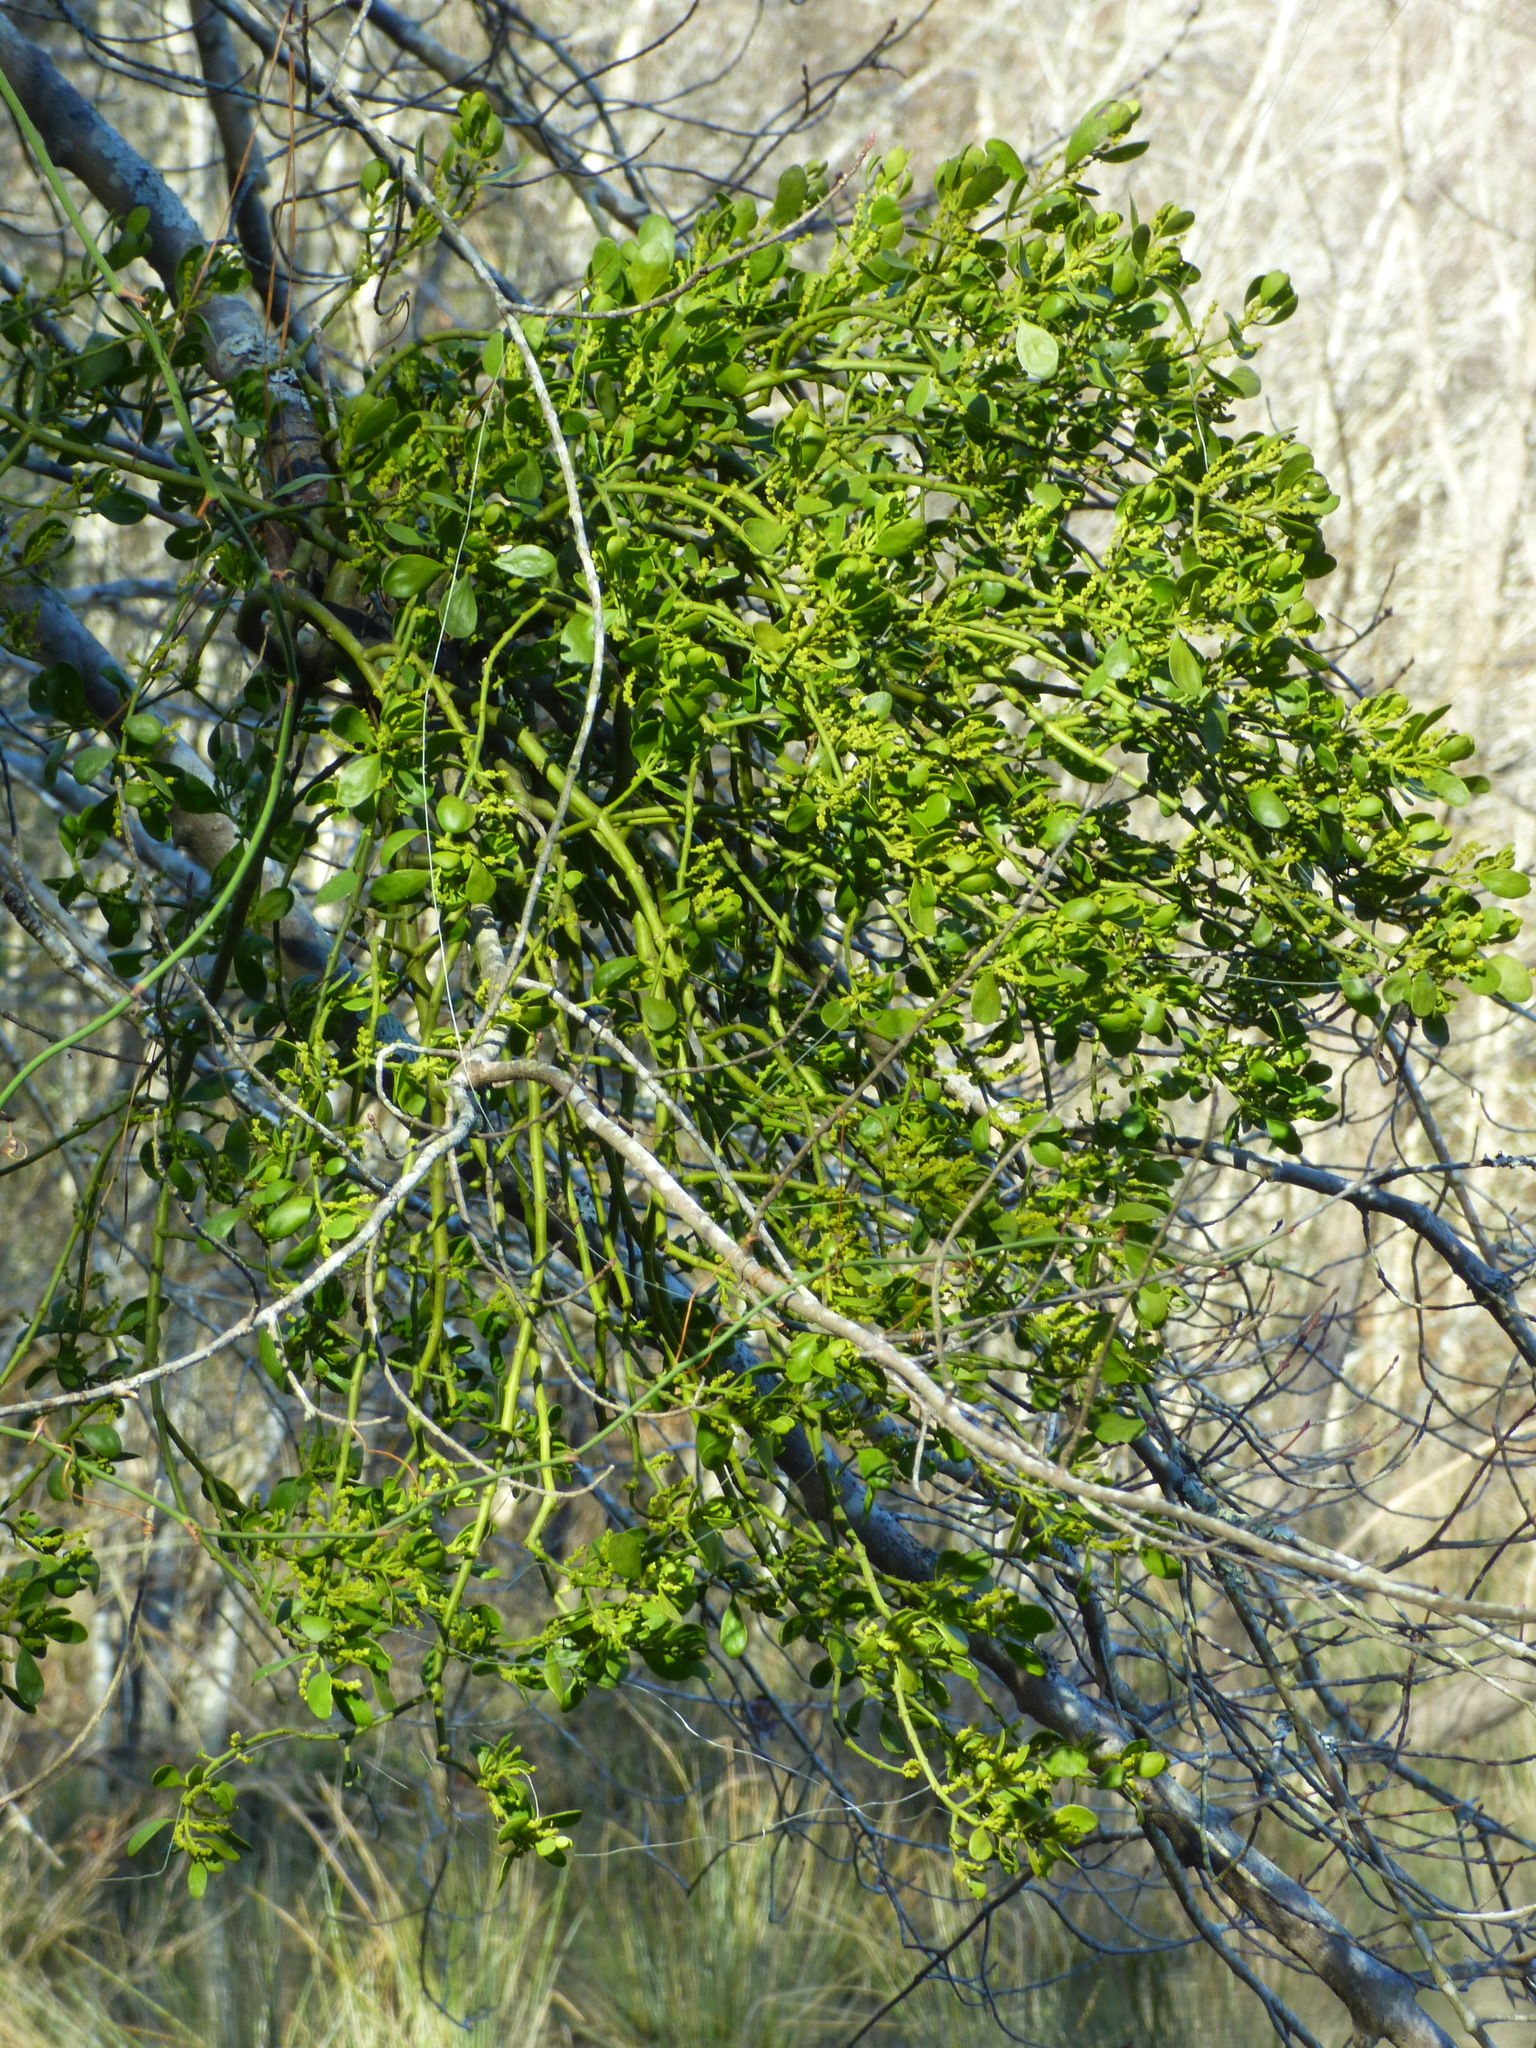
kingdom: Plantae
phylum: Tracheophyta
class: Magnoliopsida
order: Santalales
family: Viscaceae
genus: Phoradendron
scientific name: Phoradendron leucarpum
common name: Pacific mistletoe
